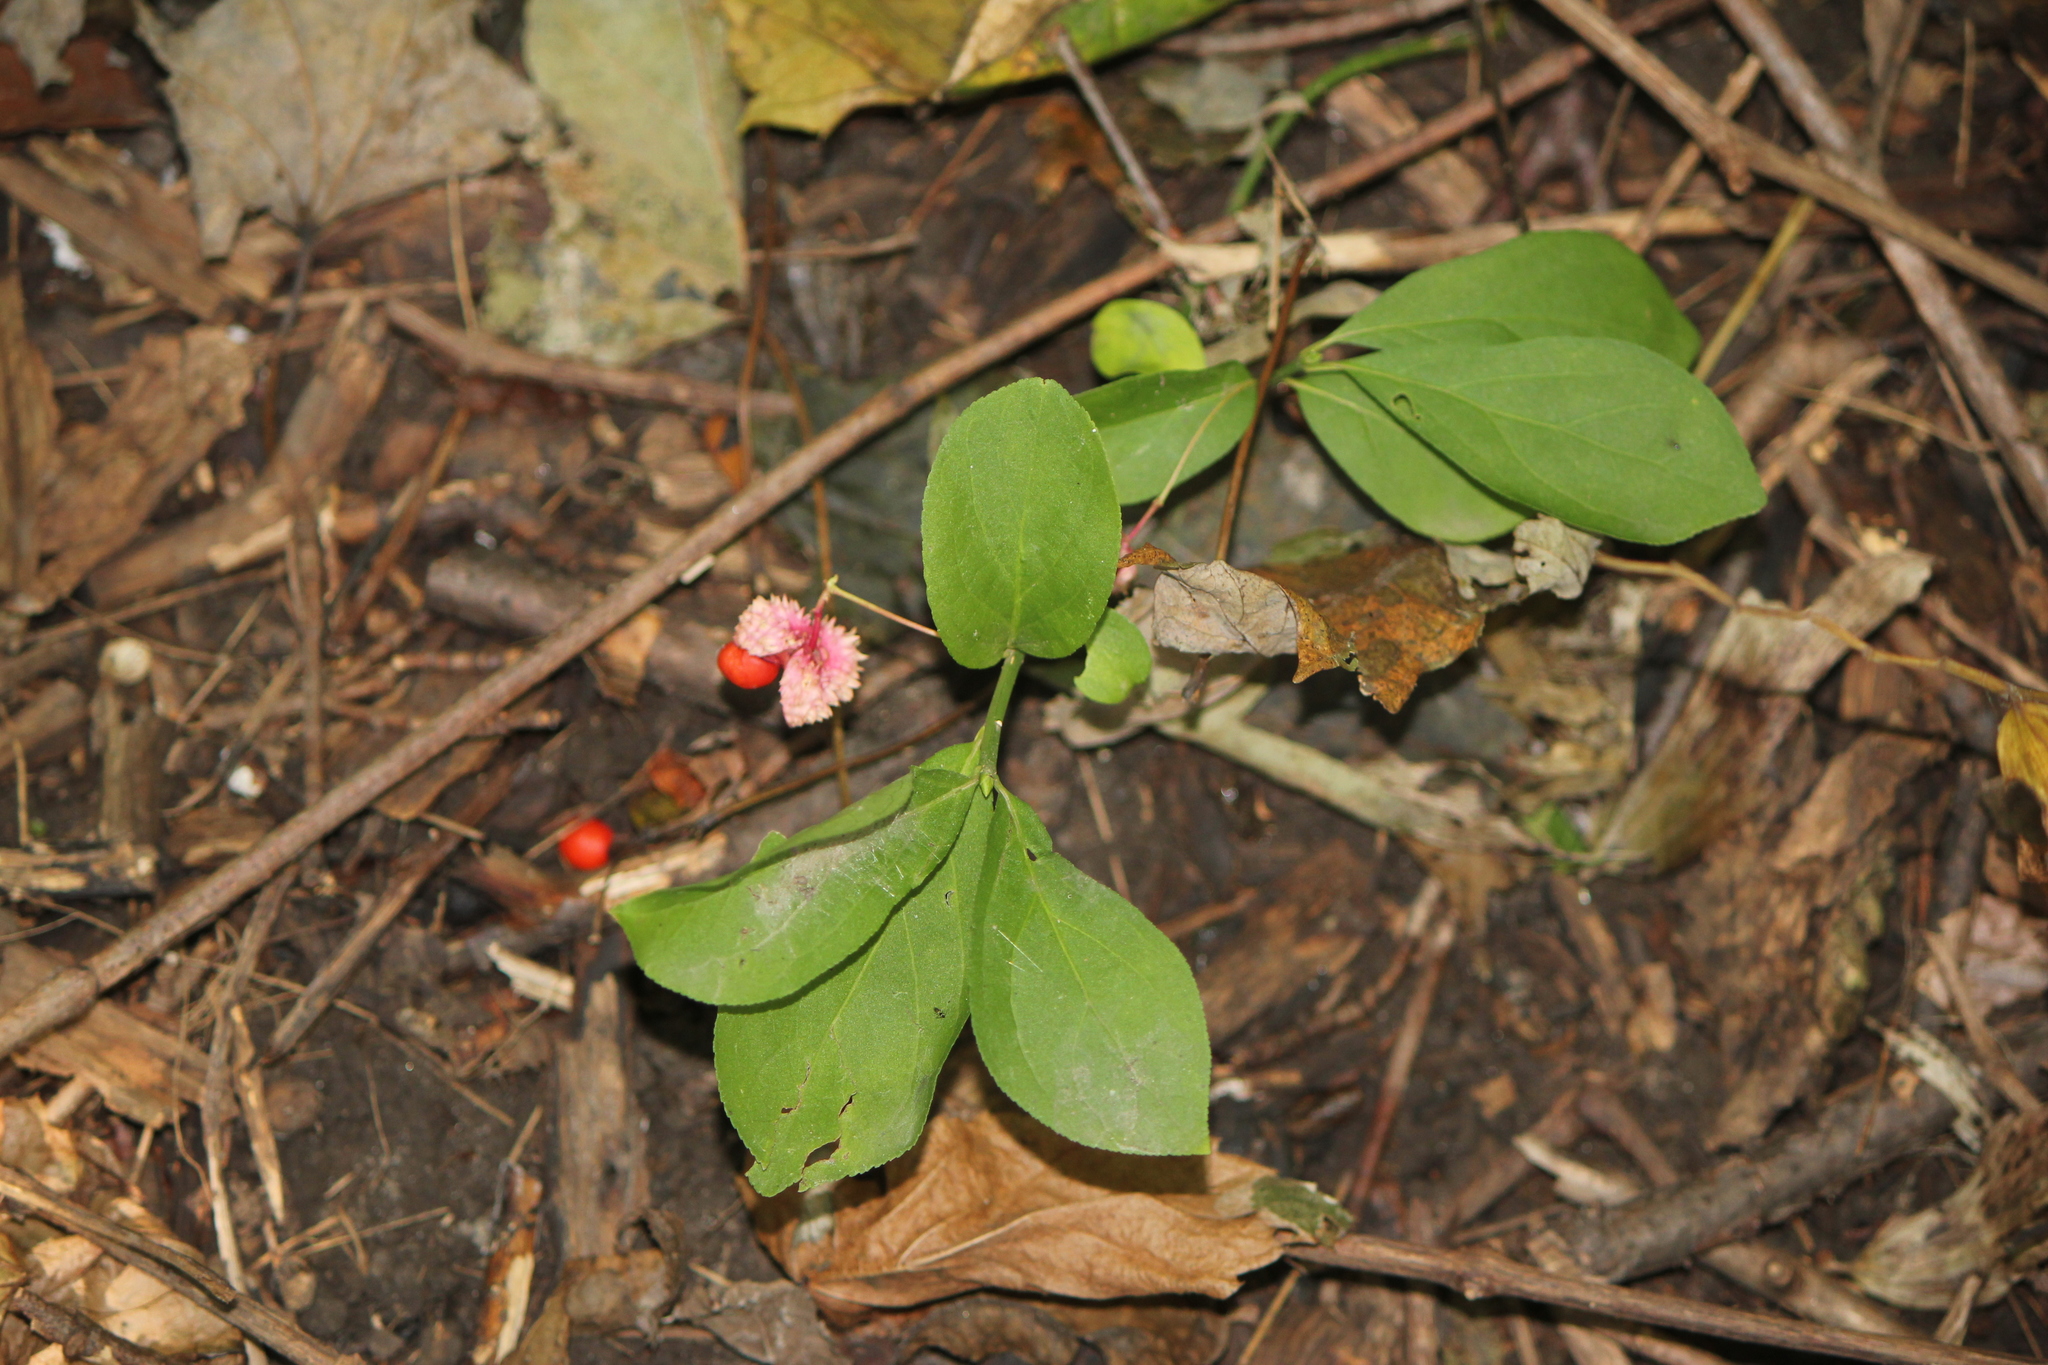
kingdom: Plantae
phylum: Tracheophyta
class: Magnoliopsida
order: Celastrales
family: Celastraceae
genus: Euonymus
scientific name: Euonymus obovatus
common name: Running strawberry-bush
